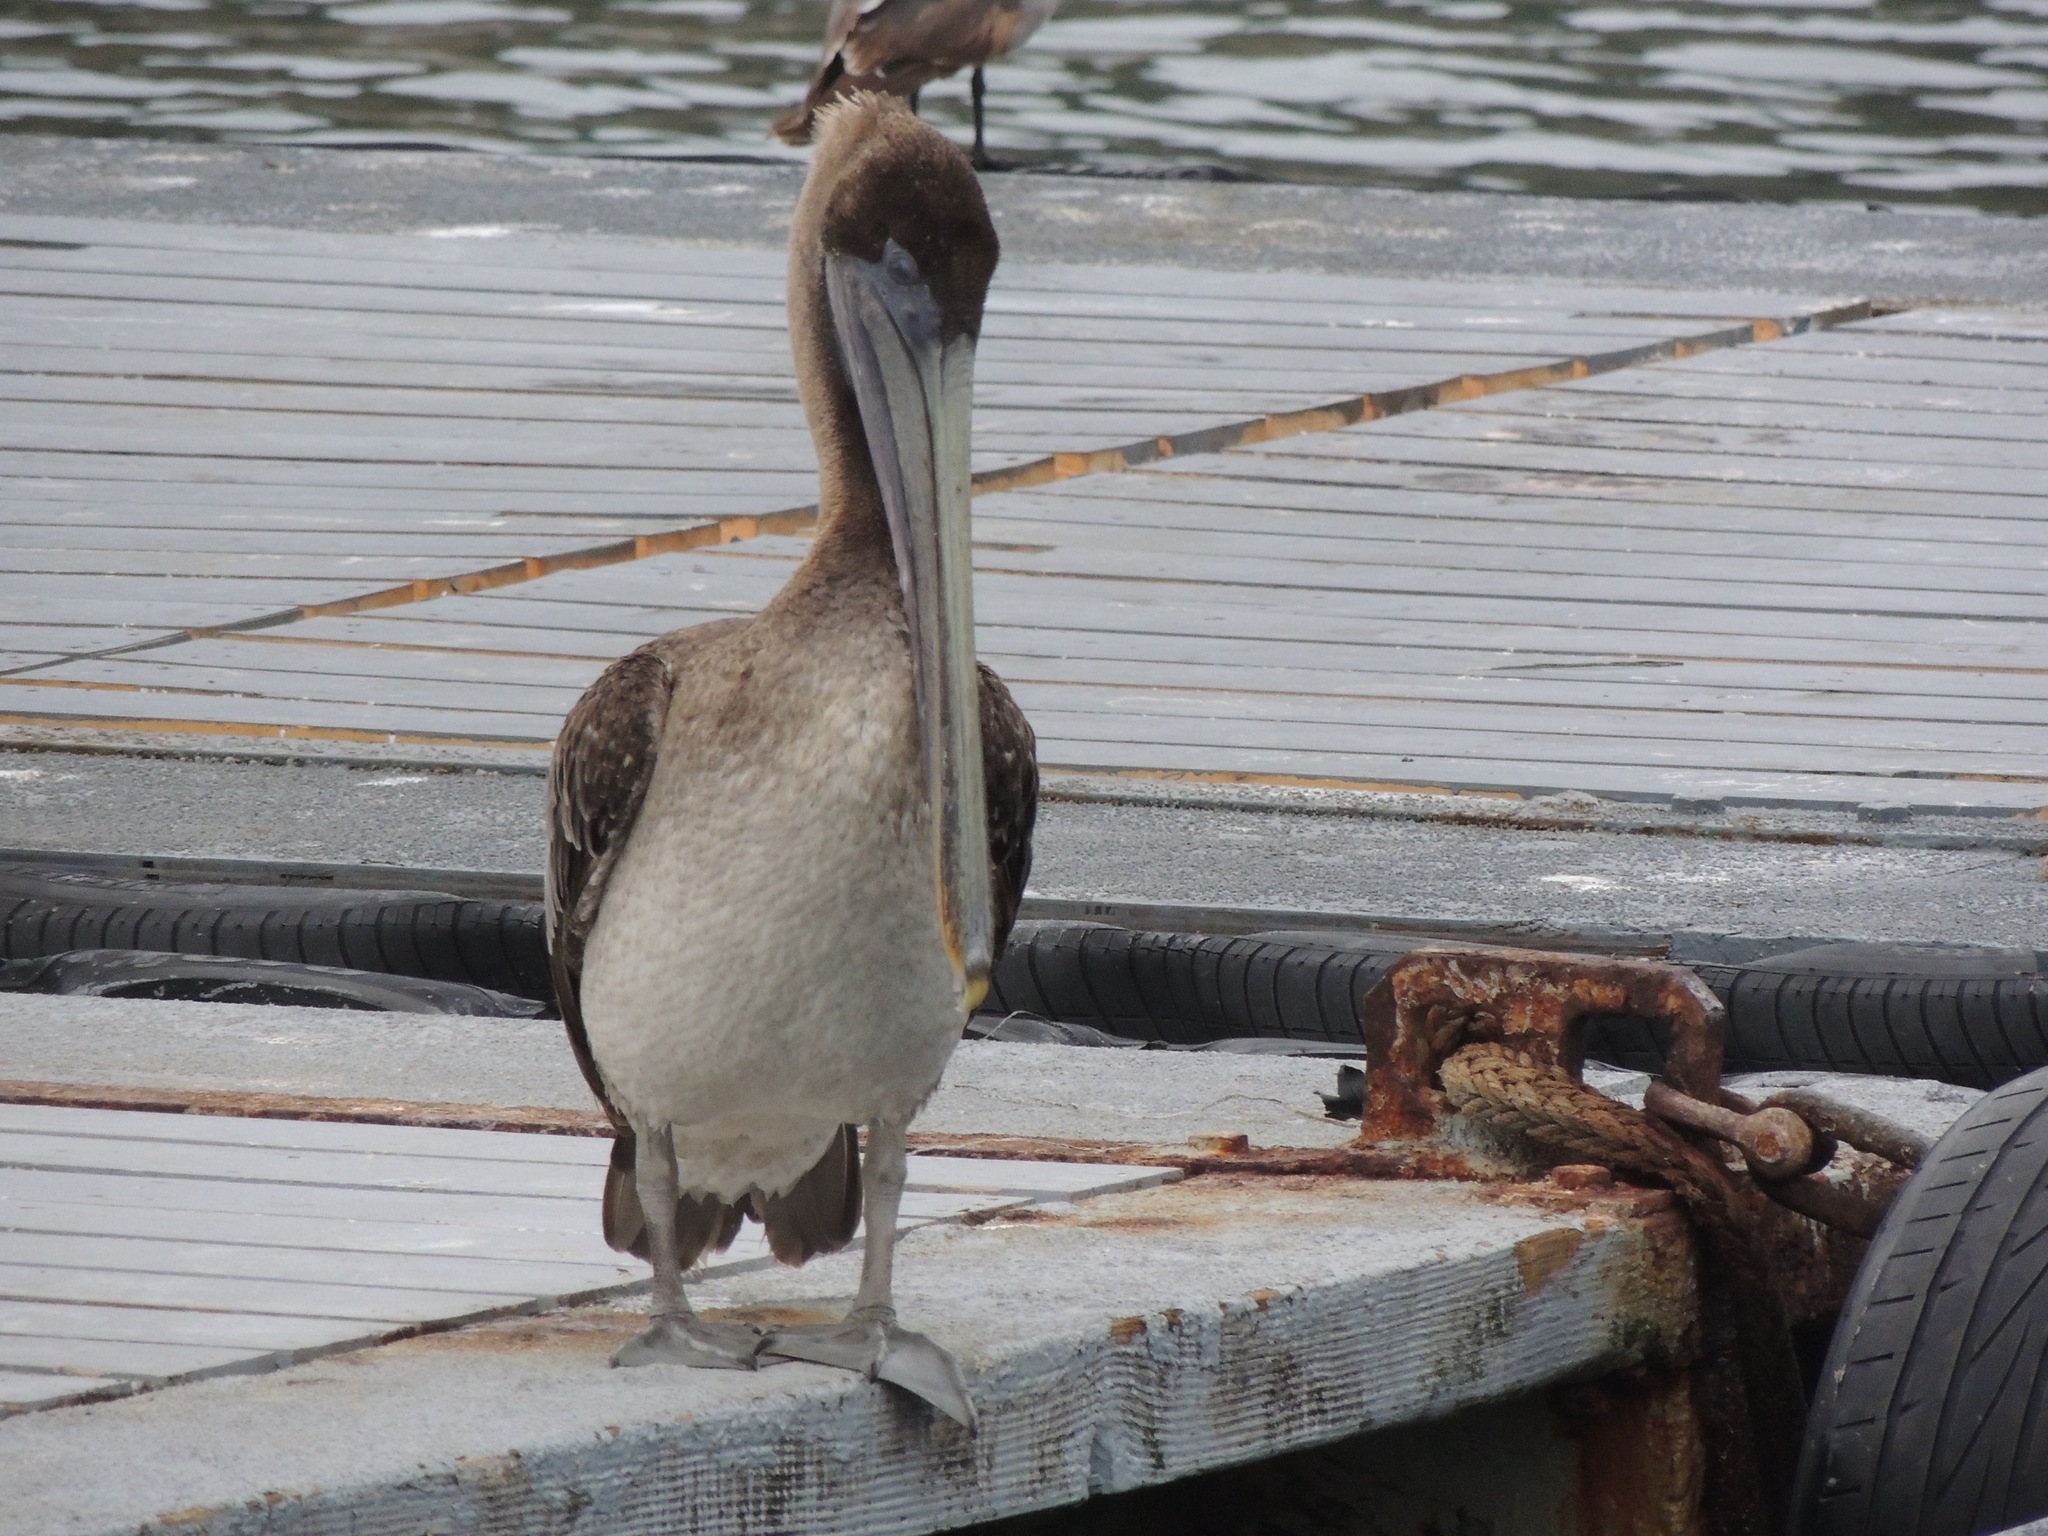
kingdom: Animalia
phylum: Chordata
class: Aves
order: Pelecaniformes
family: Pelecanidae
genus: Pelecanus
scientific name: Pelecanus occidentalis
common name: Brown pelican
